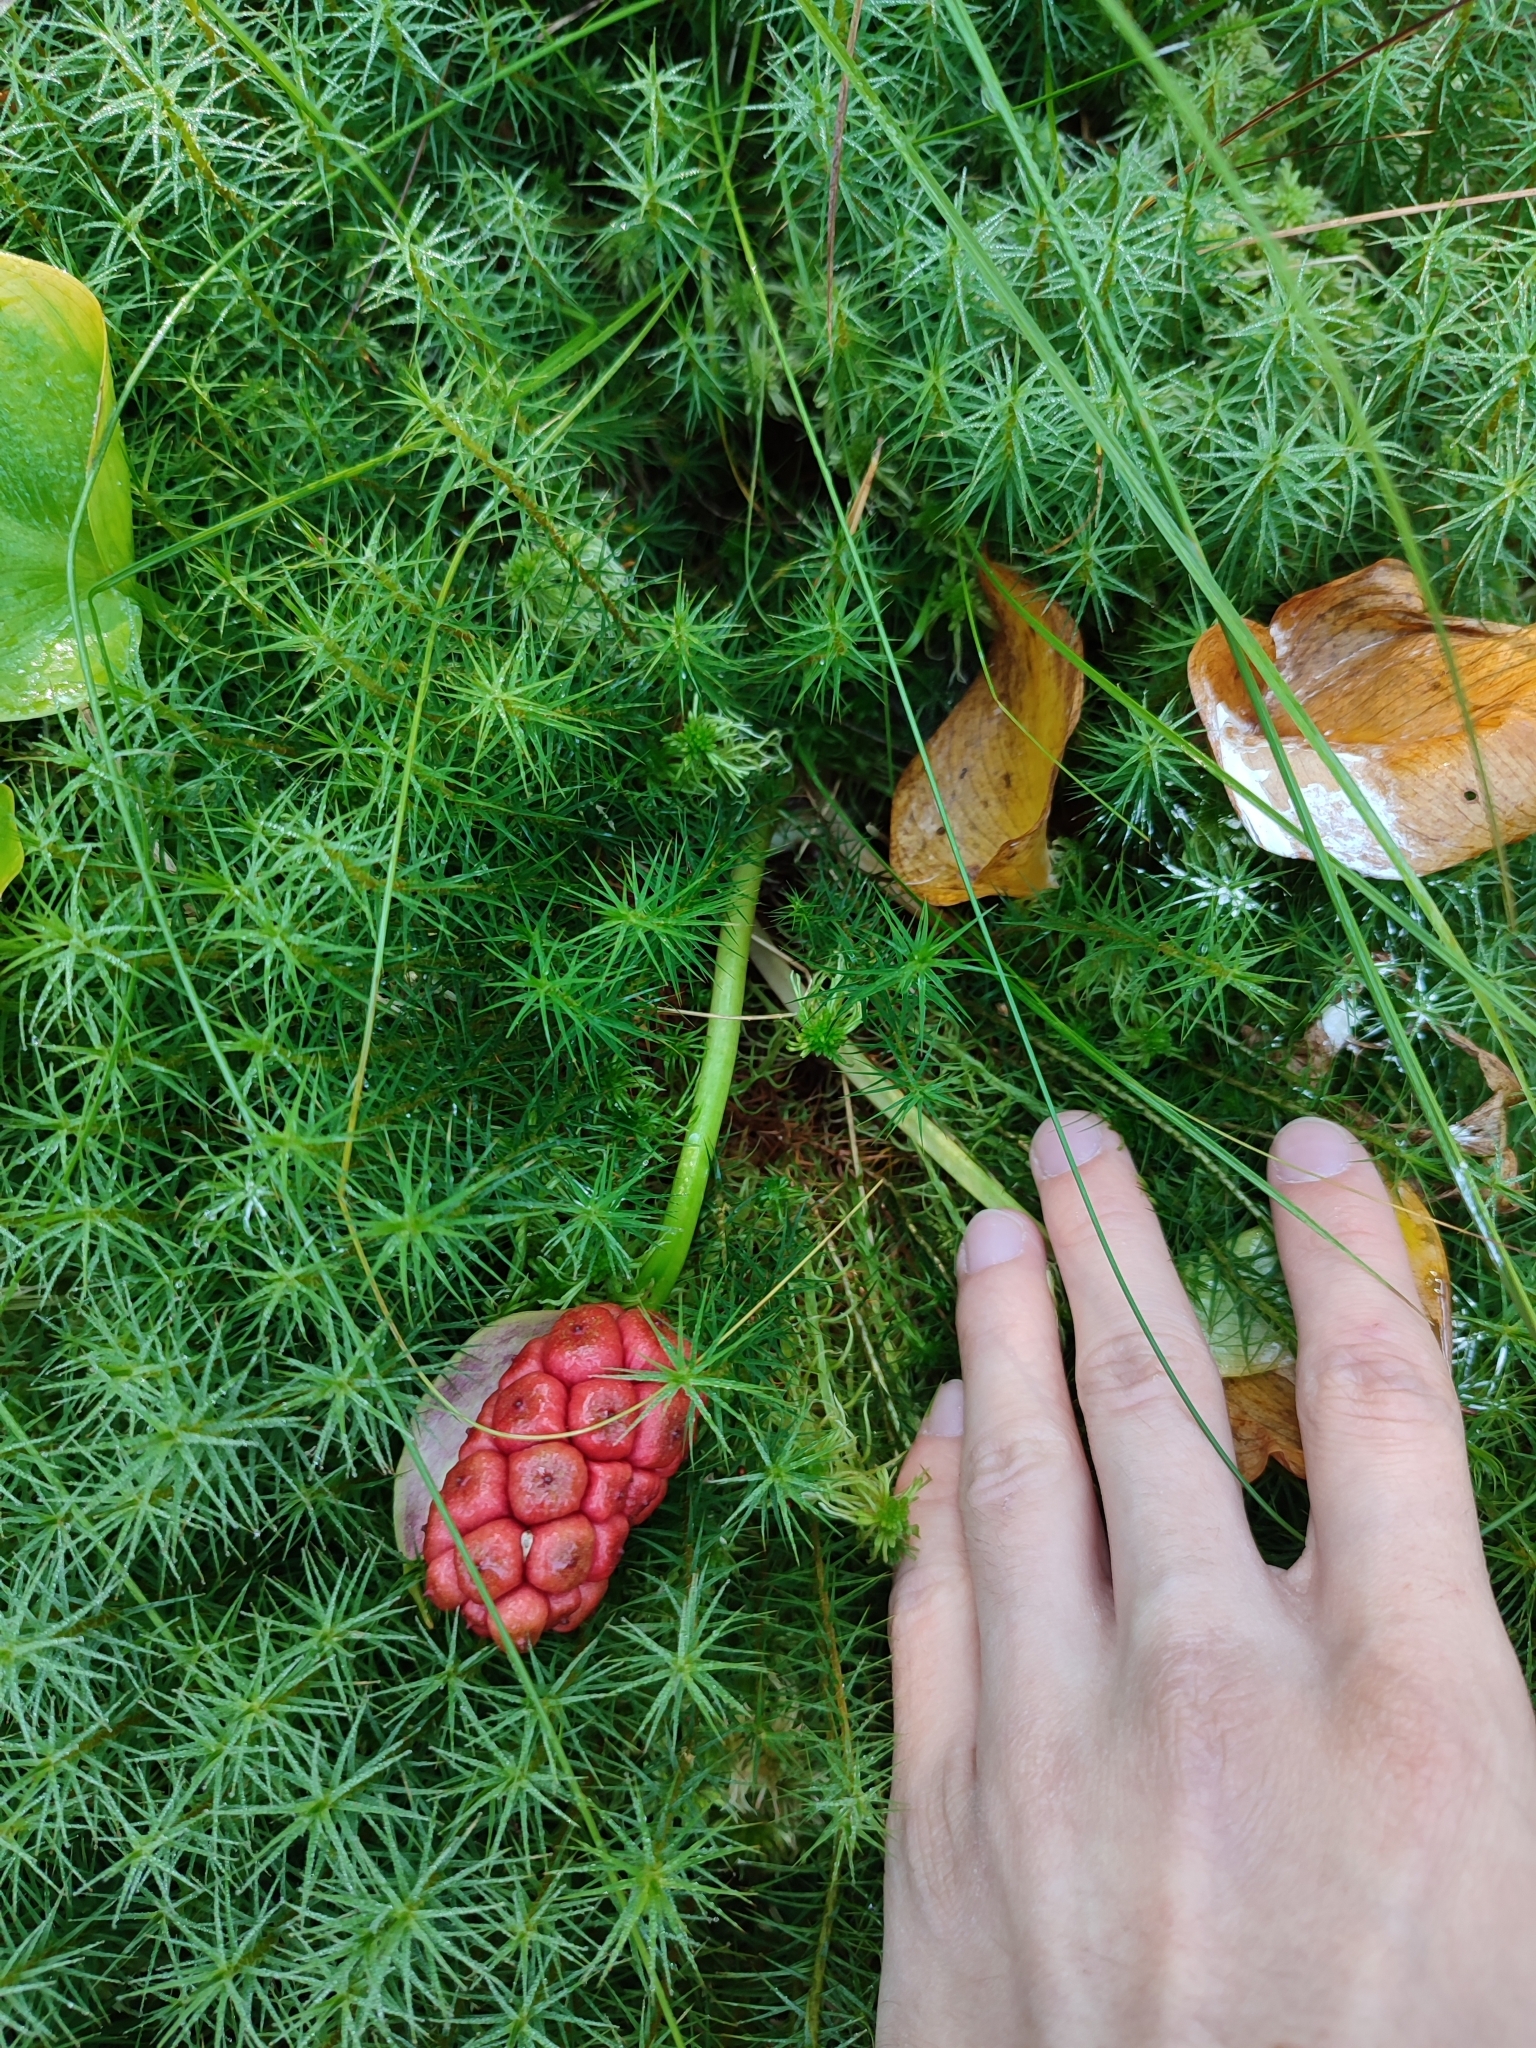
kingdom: Plantae
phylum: Tracheophyta
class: Liliopsida
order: Alismatales
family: Araceae
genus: Calla
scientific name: Calla palustris
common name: Bog arum
